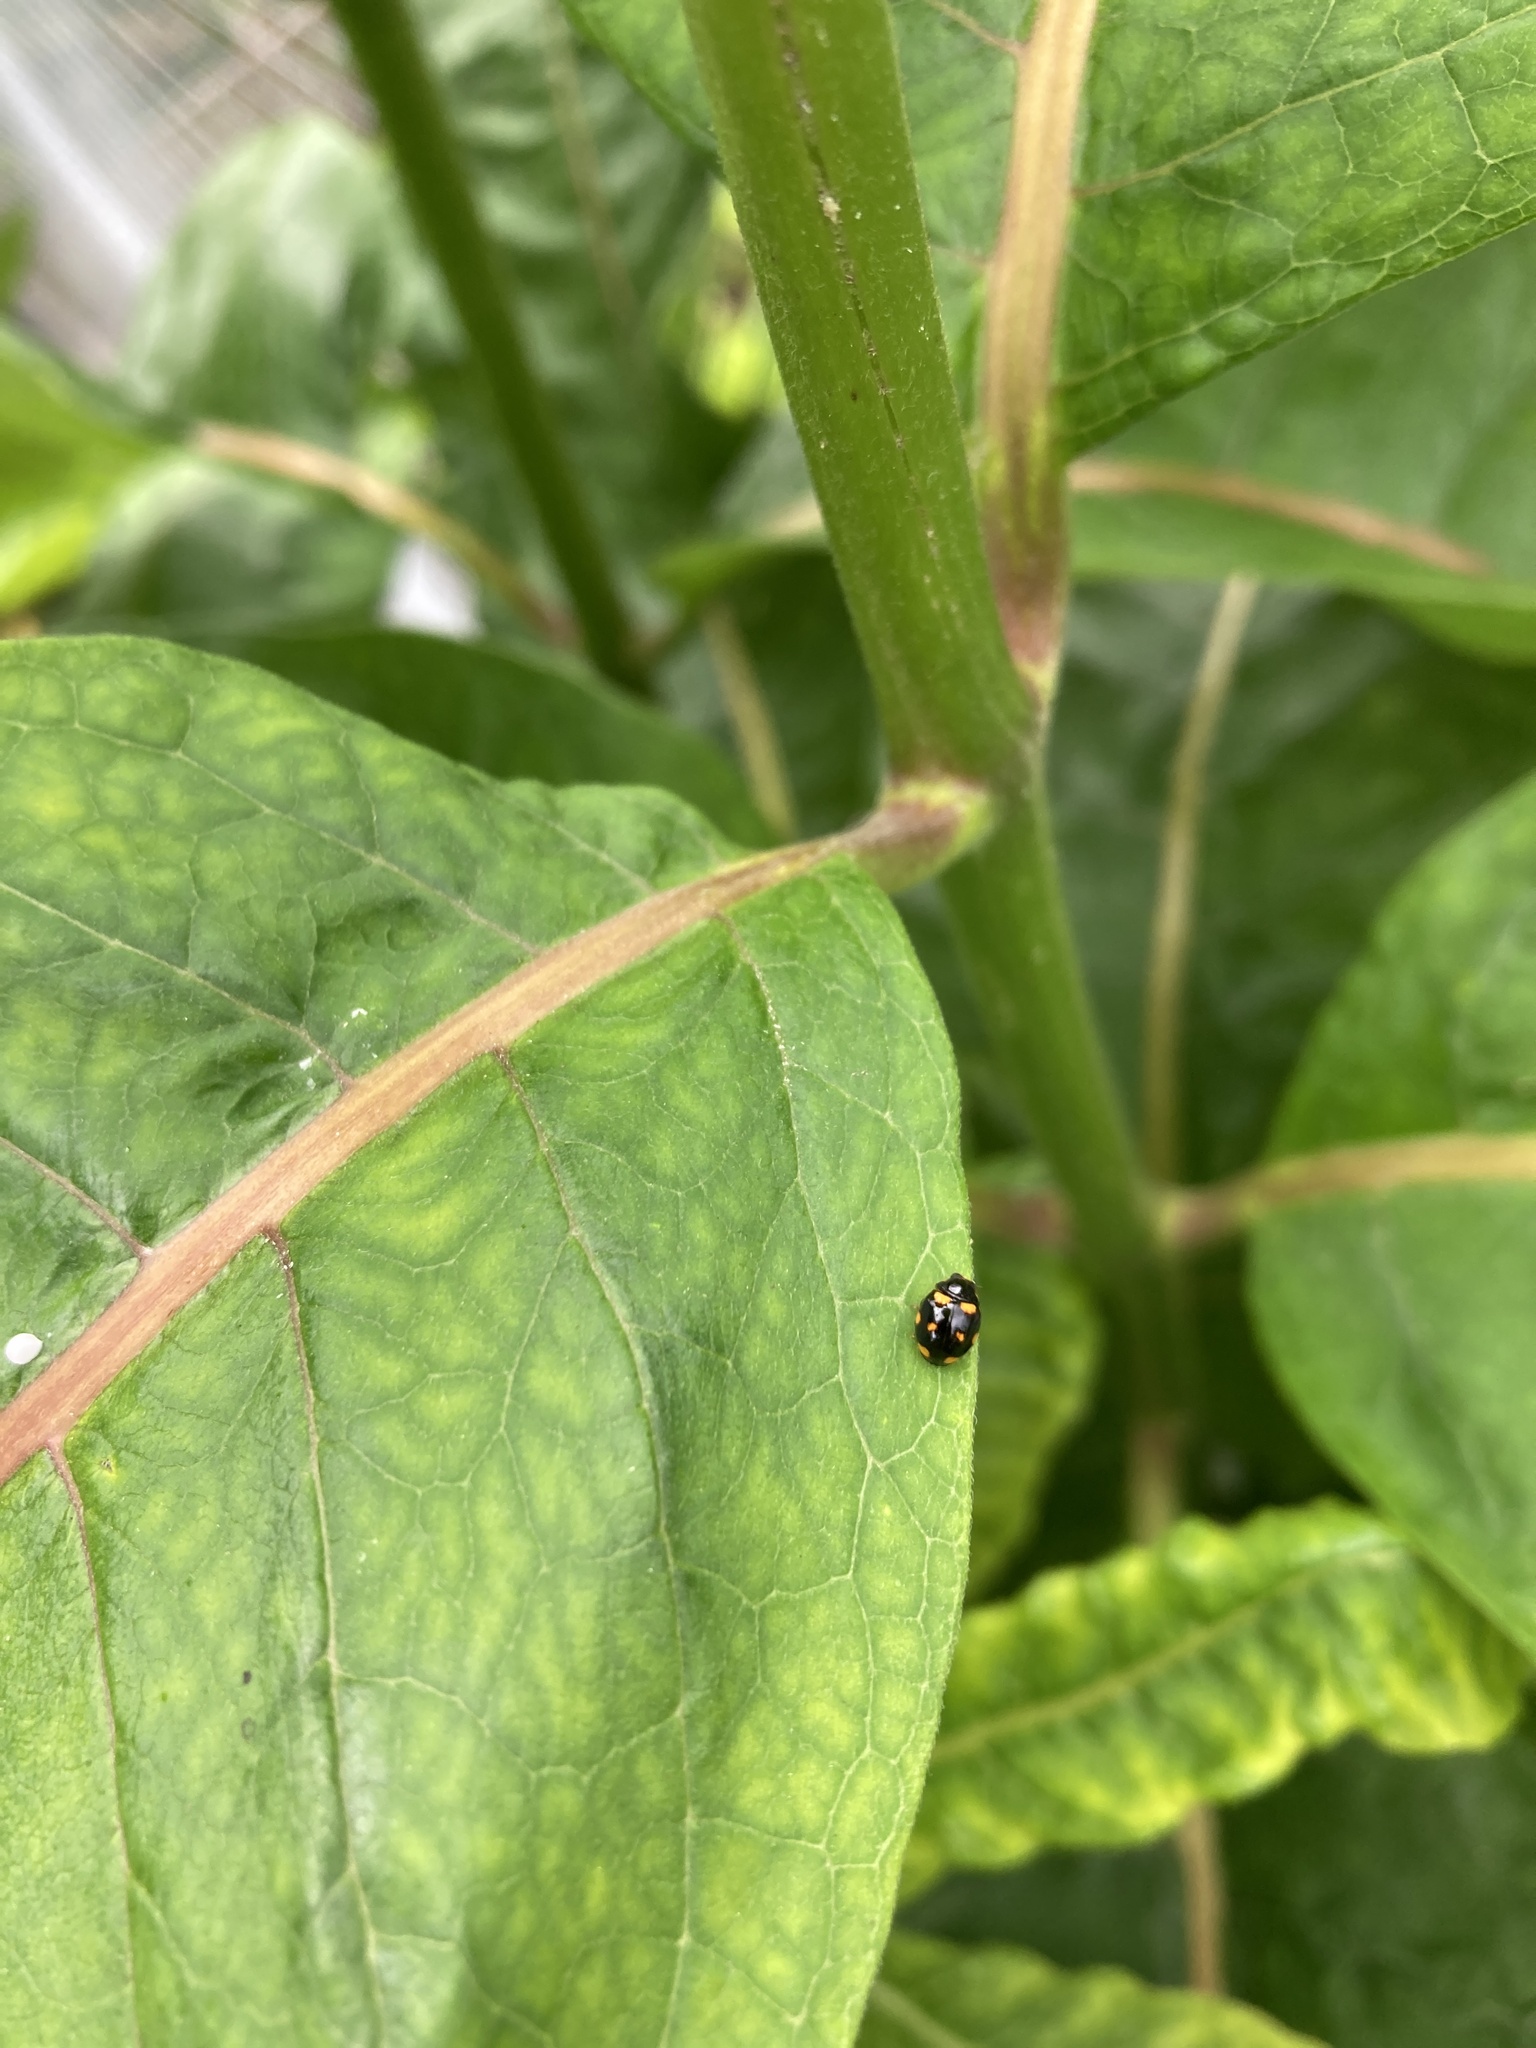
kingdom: Animalia
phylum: Arthropoda
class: Insecta
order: Coleoptera
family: Coccinellidae
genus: Brachiacantha
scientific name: Brachiacantha ursina
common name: Ursine spurleg lady beetle
